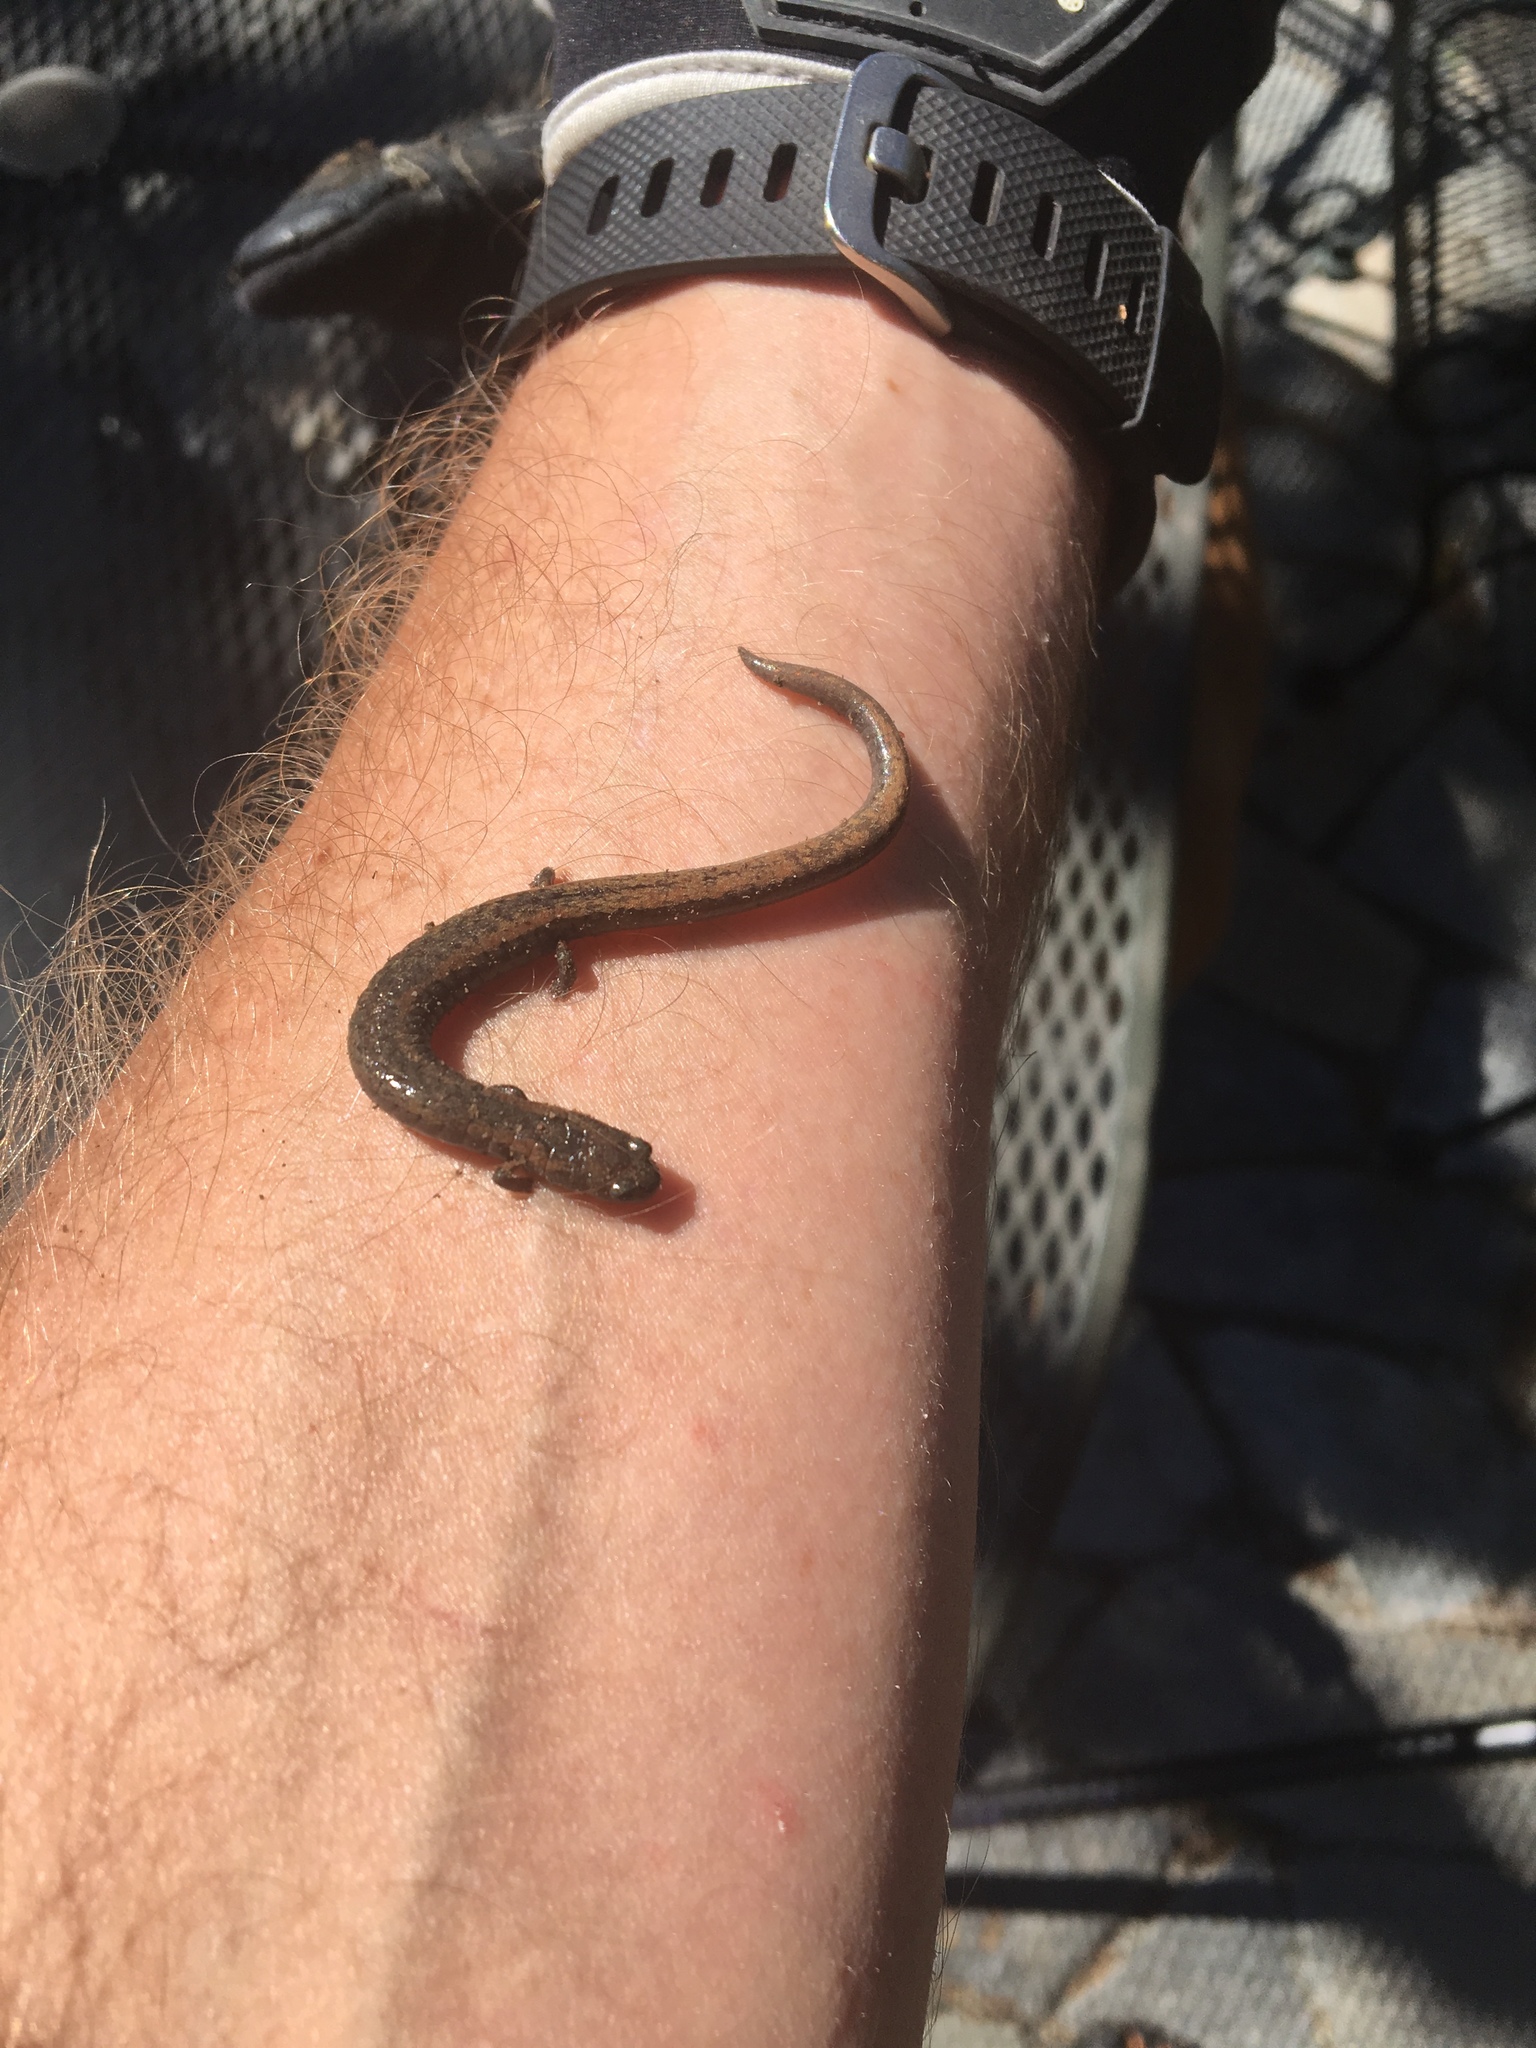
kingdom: Animalia
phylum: Chordata
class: Amphibia
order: Caudata
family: Plethodontidae
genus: Batrachoseps
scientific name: Batrachoseps attenuatus
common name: California slender salamander
